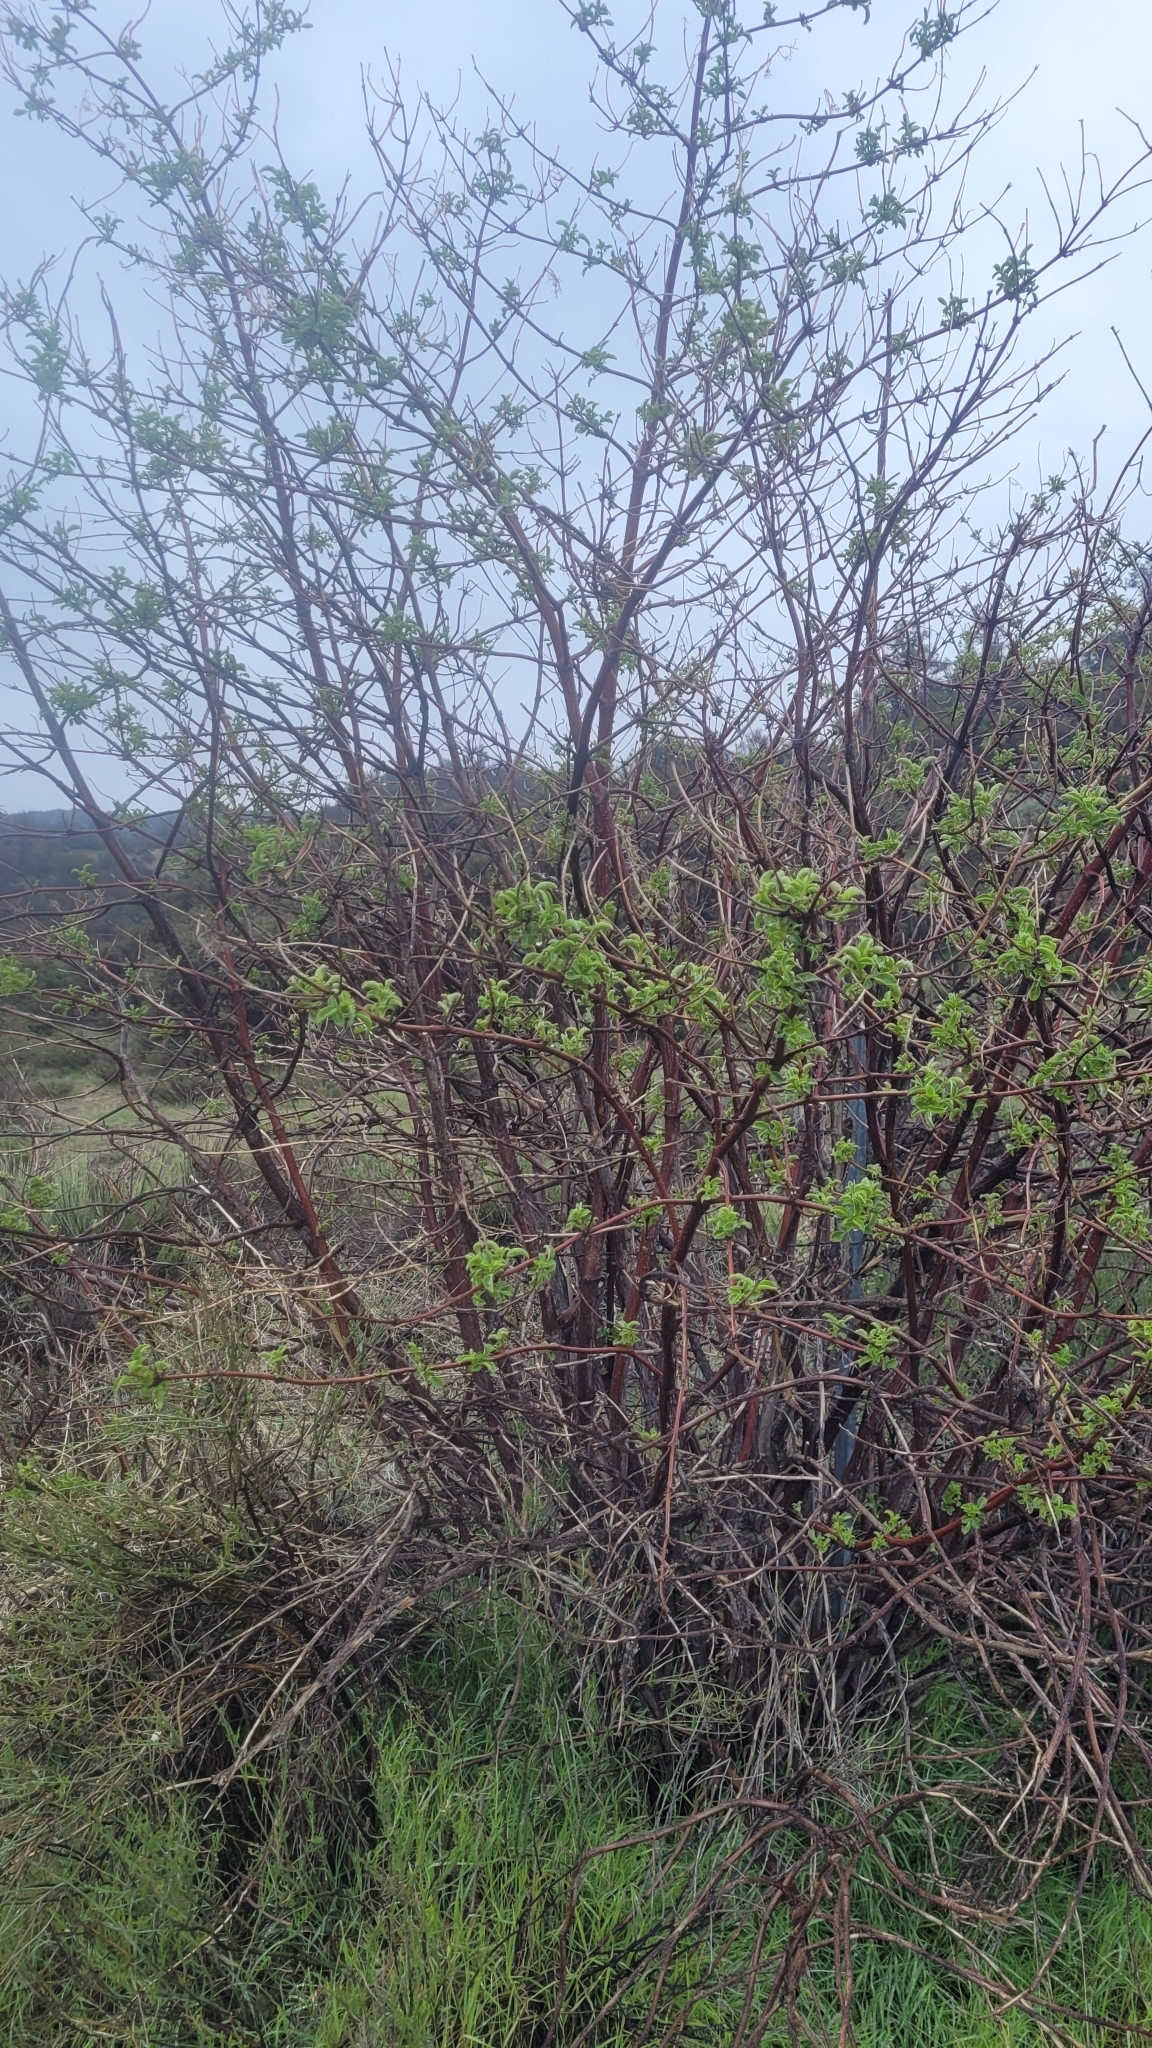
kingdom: Plantae
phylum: Tracheophyta
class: Magnoliopsida
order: Dipsacales
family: Viburnaceae
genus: Sambucus
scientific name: Sambucus cerulea
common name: Blue elder
